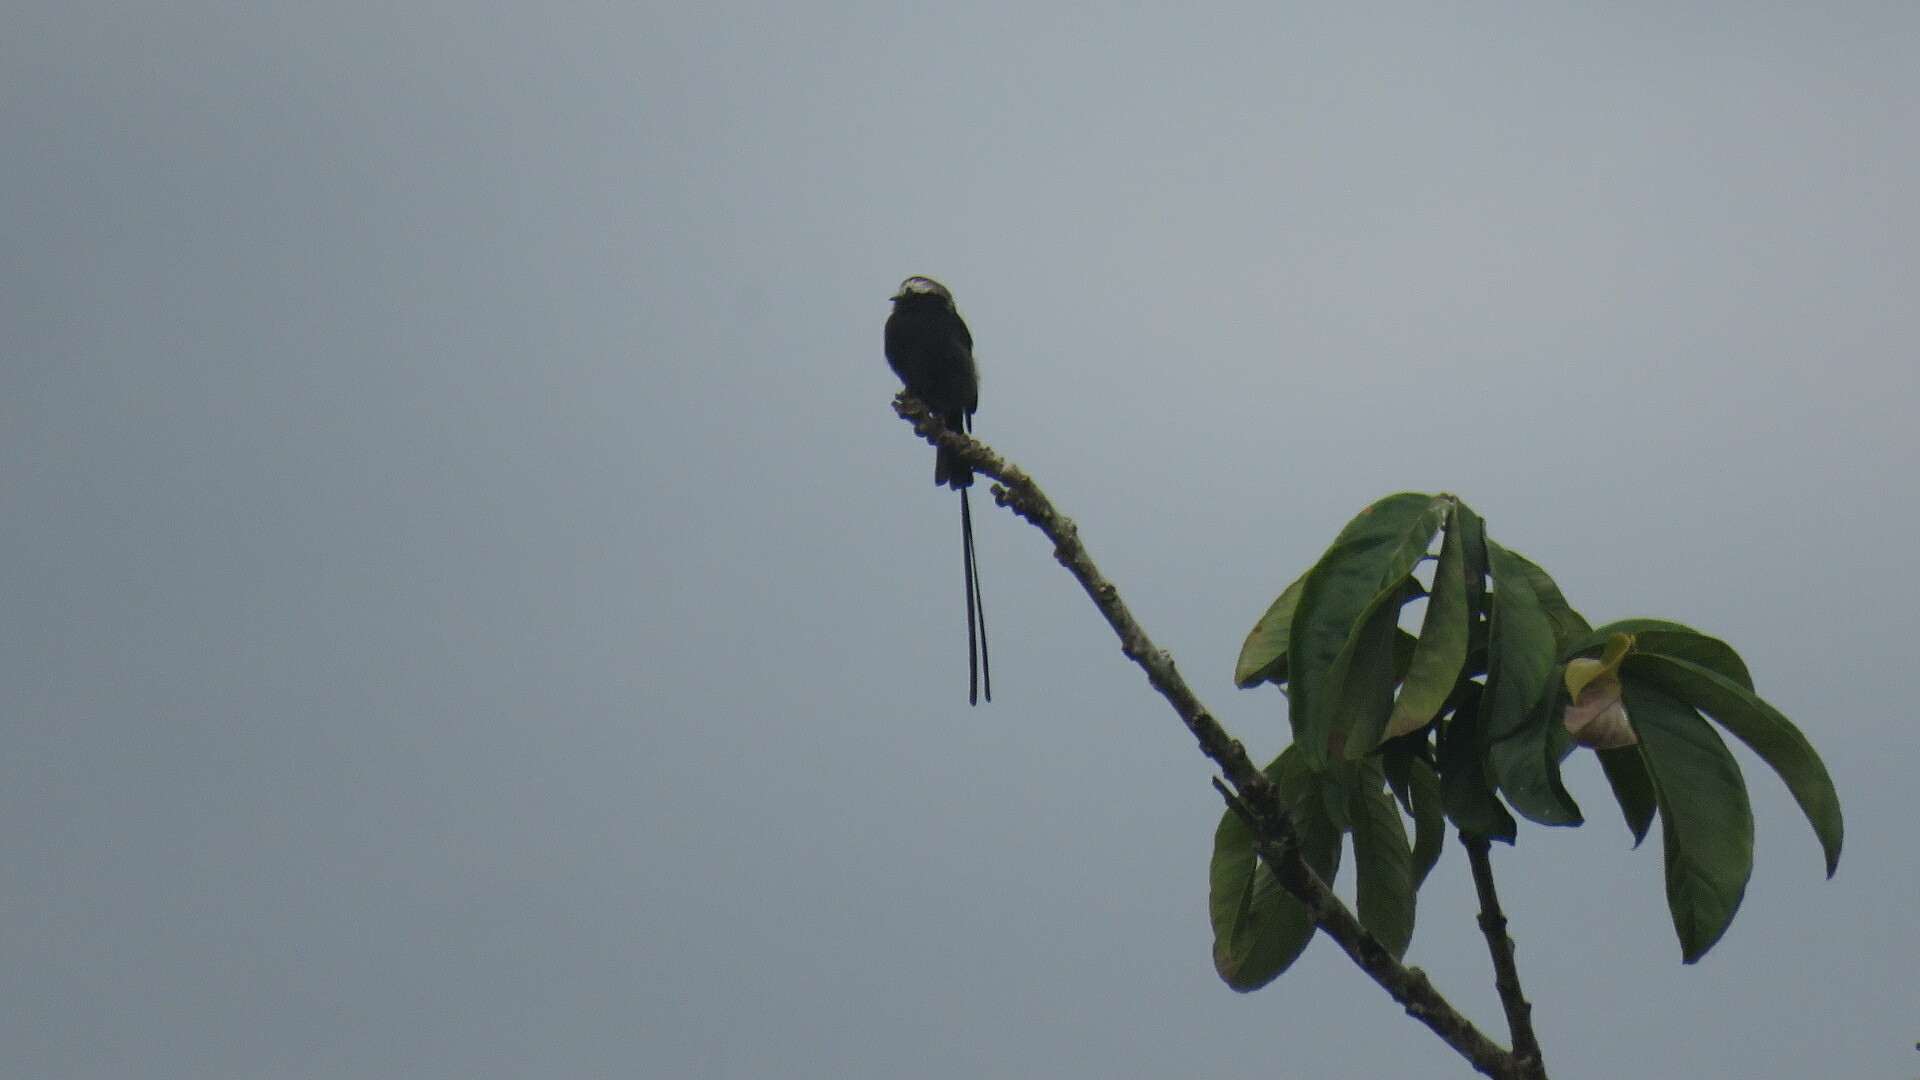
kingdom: Animalia
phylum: Chordata
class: Aves
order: Passeriformes
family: Tyrannidae
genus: Colonia
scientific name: Colonia colonus
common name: Long-tailed tyrant
